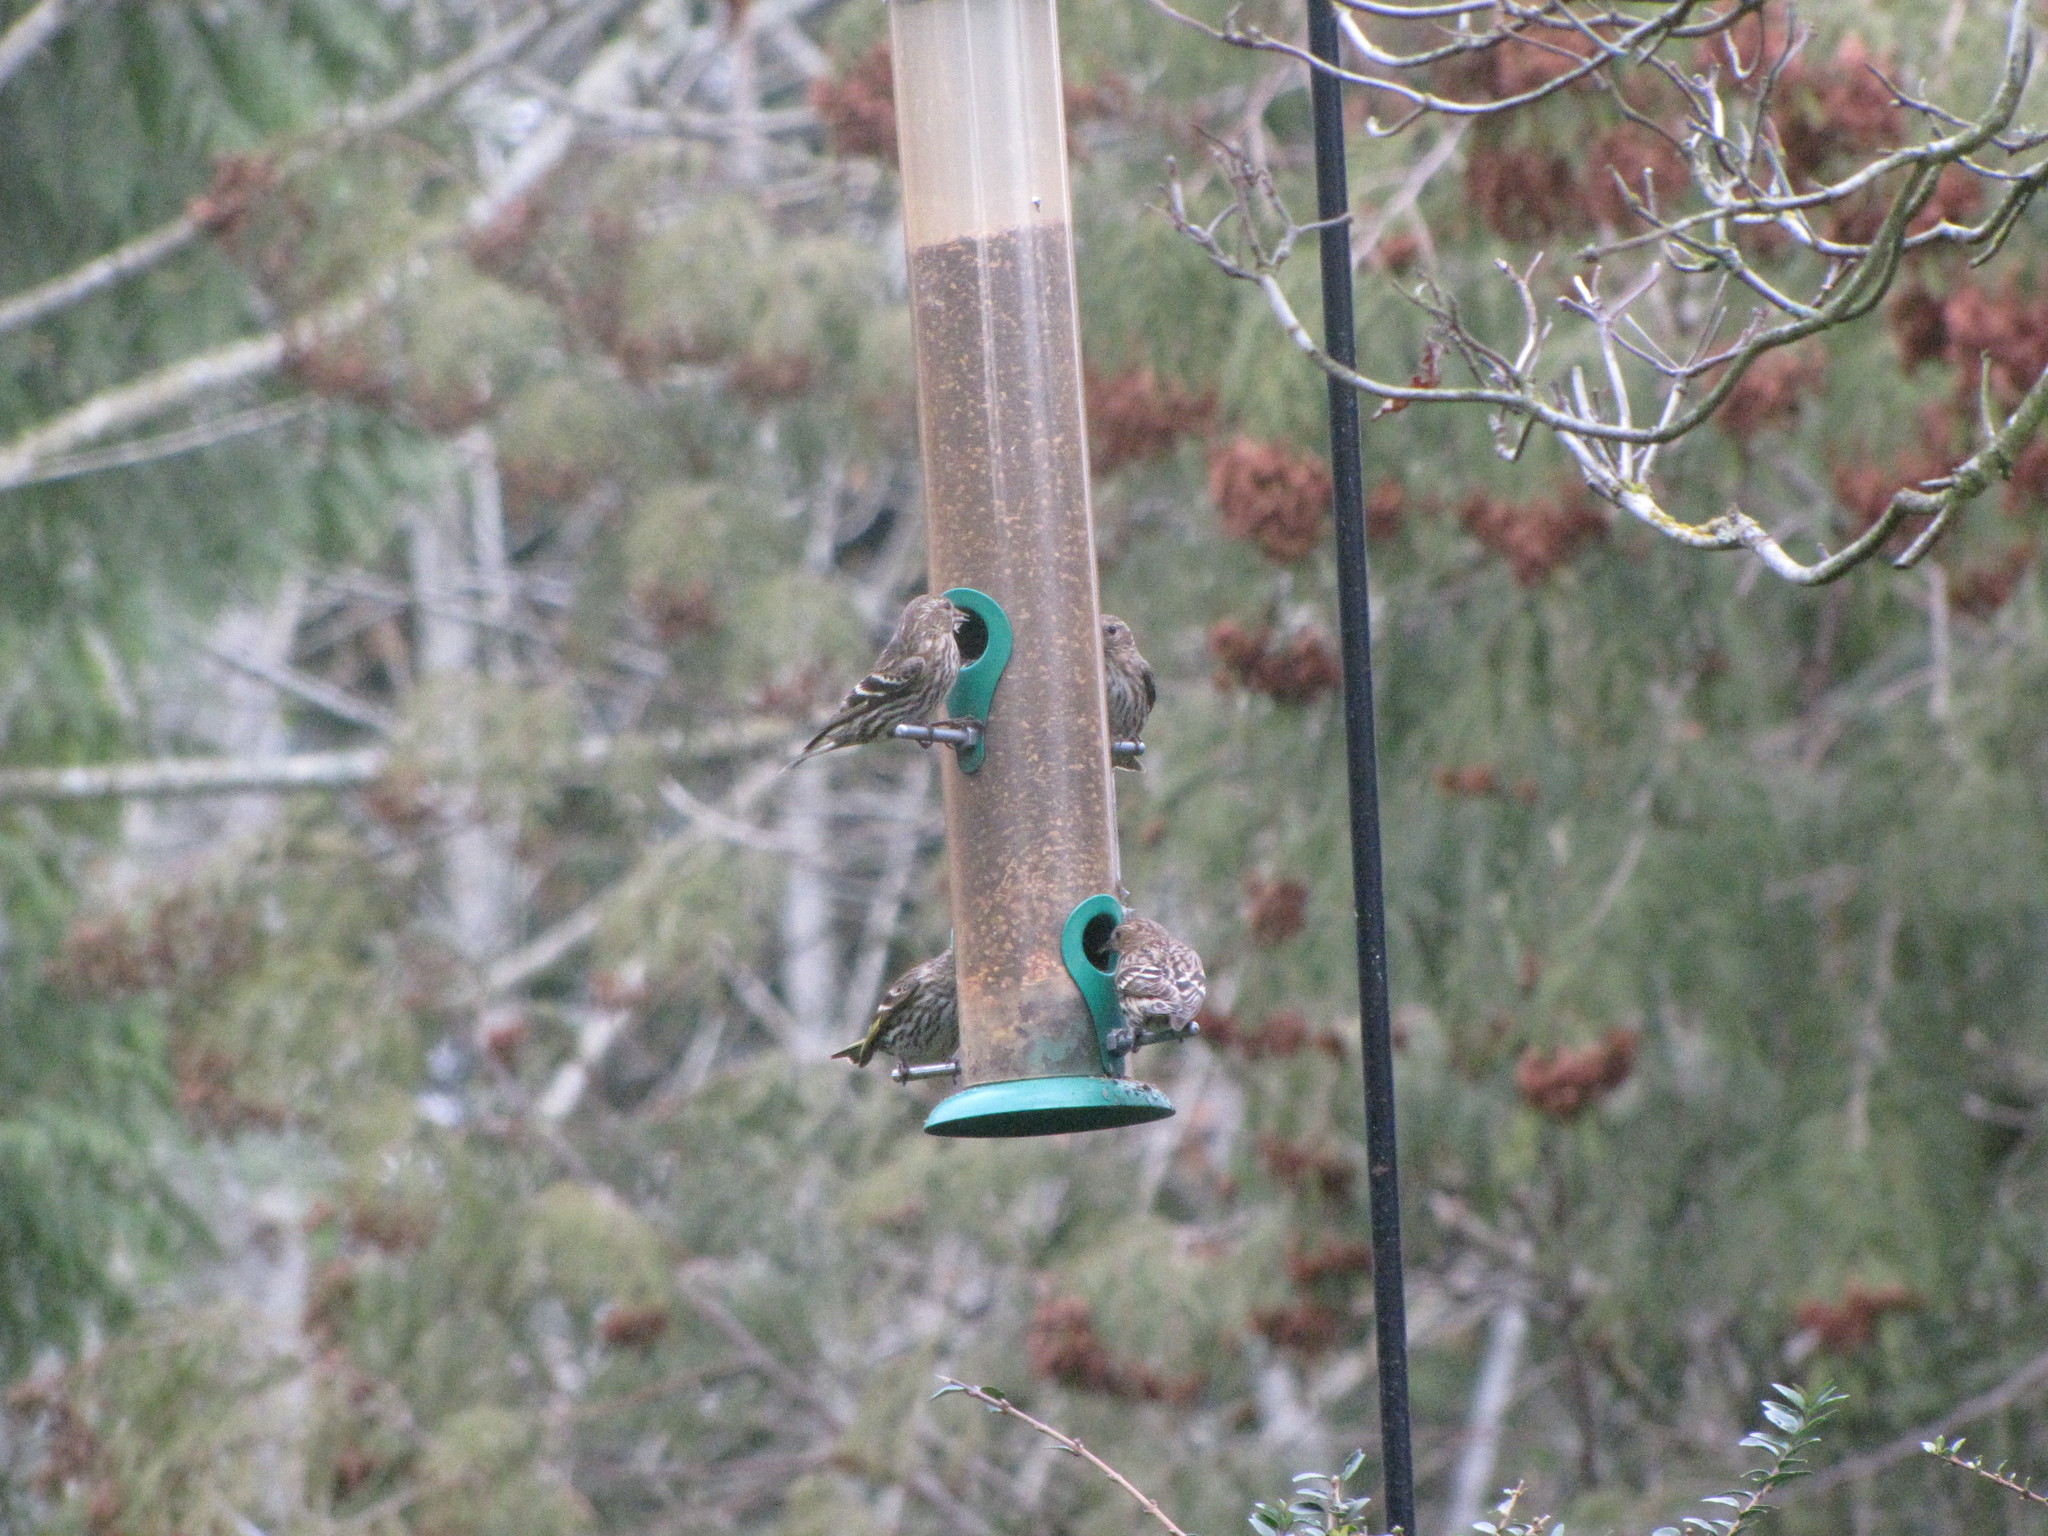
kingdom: Animalia
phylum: Chordata
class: Aves
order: Passeriformes
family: Fringillidae
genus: Spinus
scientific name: Spinus pinus
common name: Pine siskin
